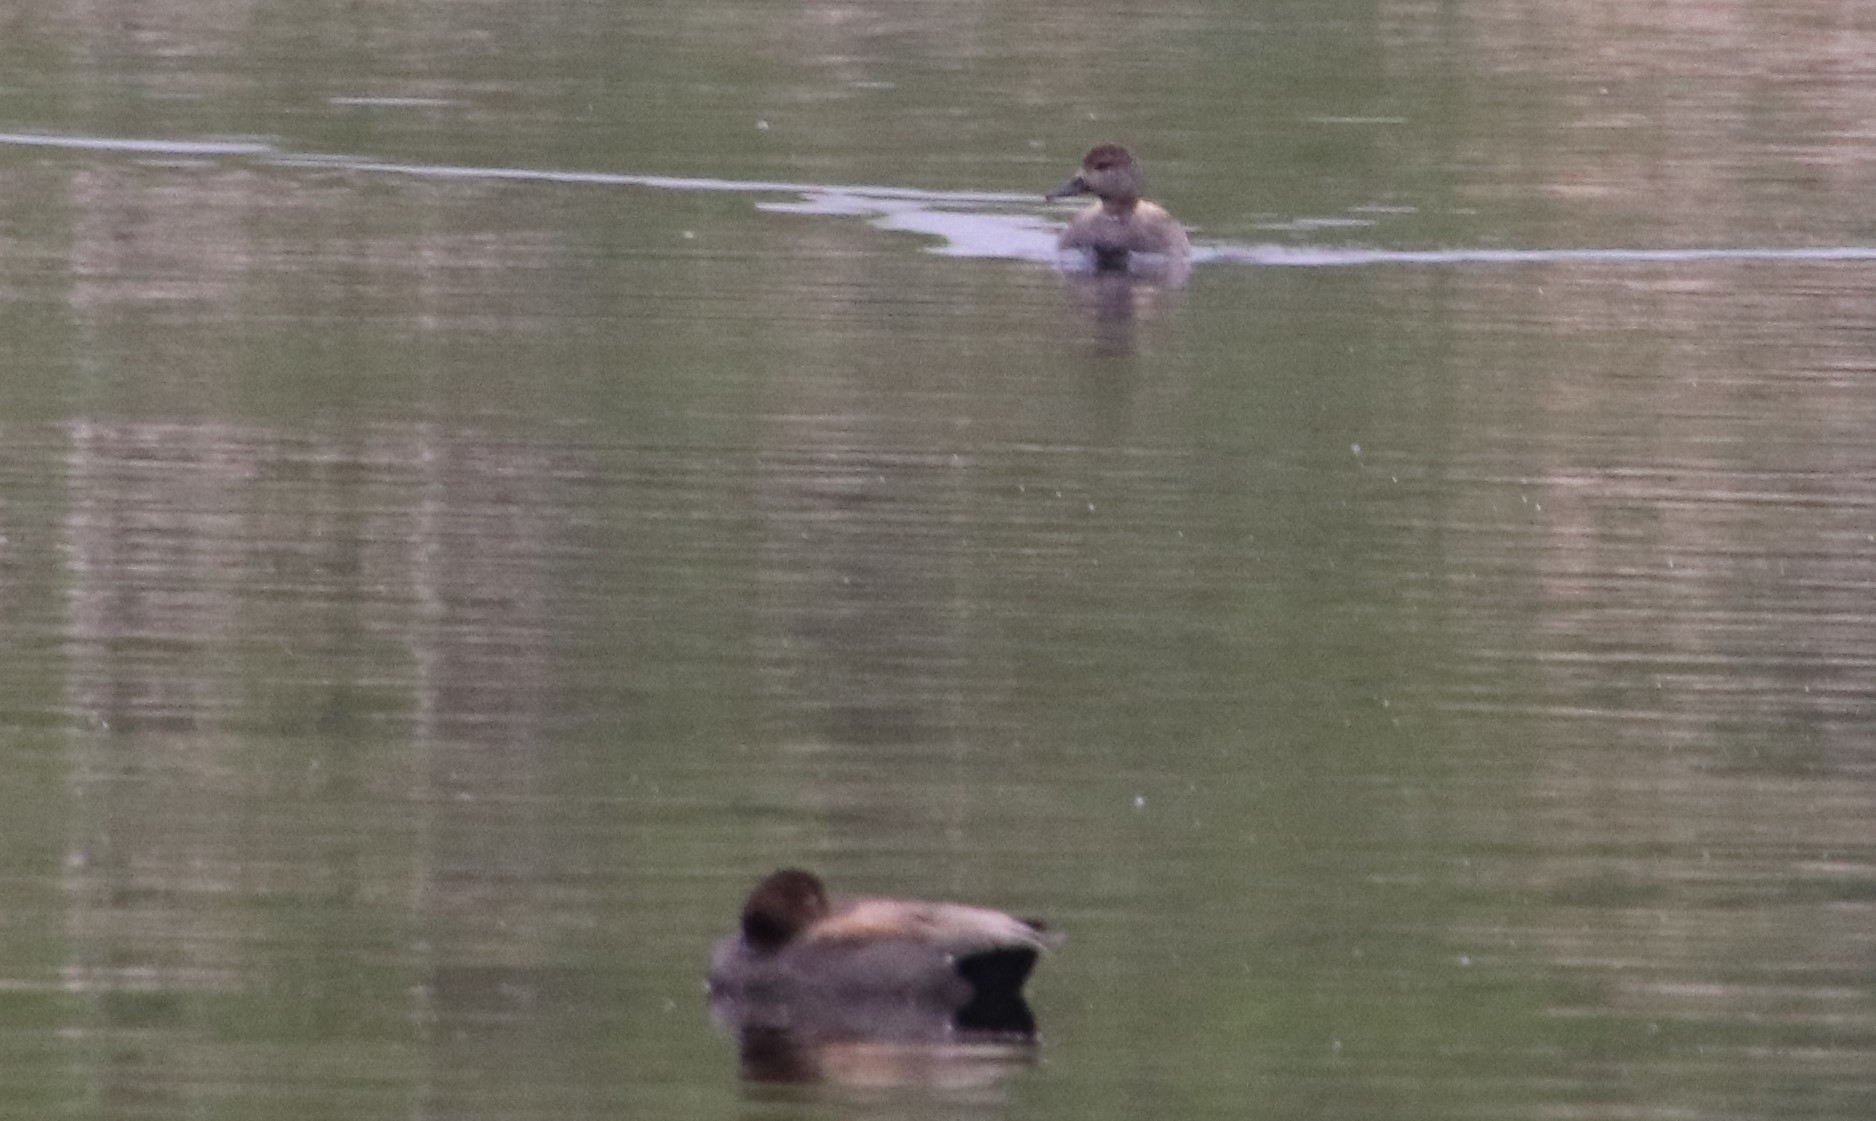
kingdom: Animalia
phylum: Chordata
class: Aves
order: Anseriformes
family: Anatidae
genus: Mareca
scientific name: Mareca strepera
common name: Gadwall
